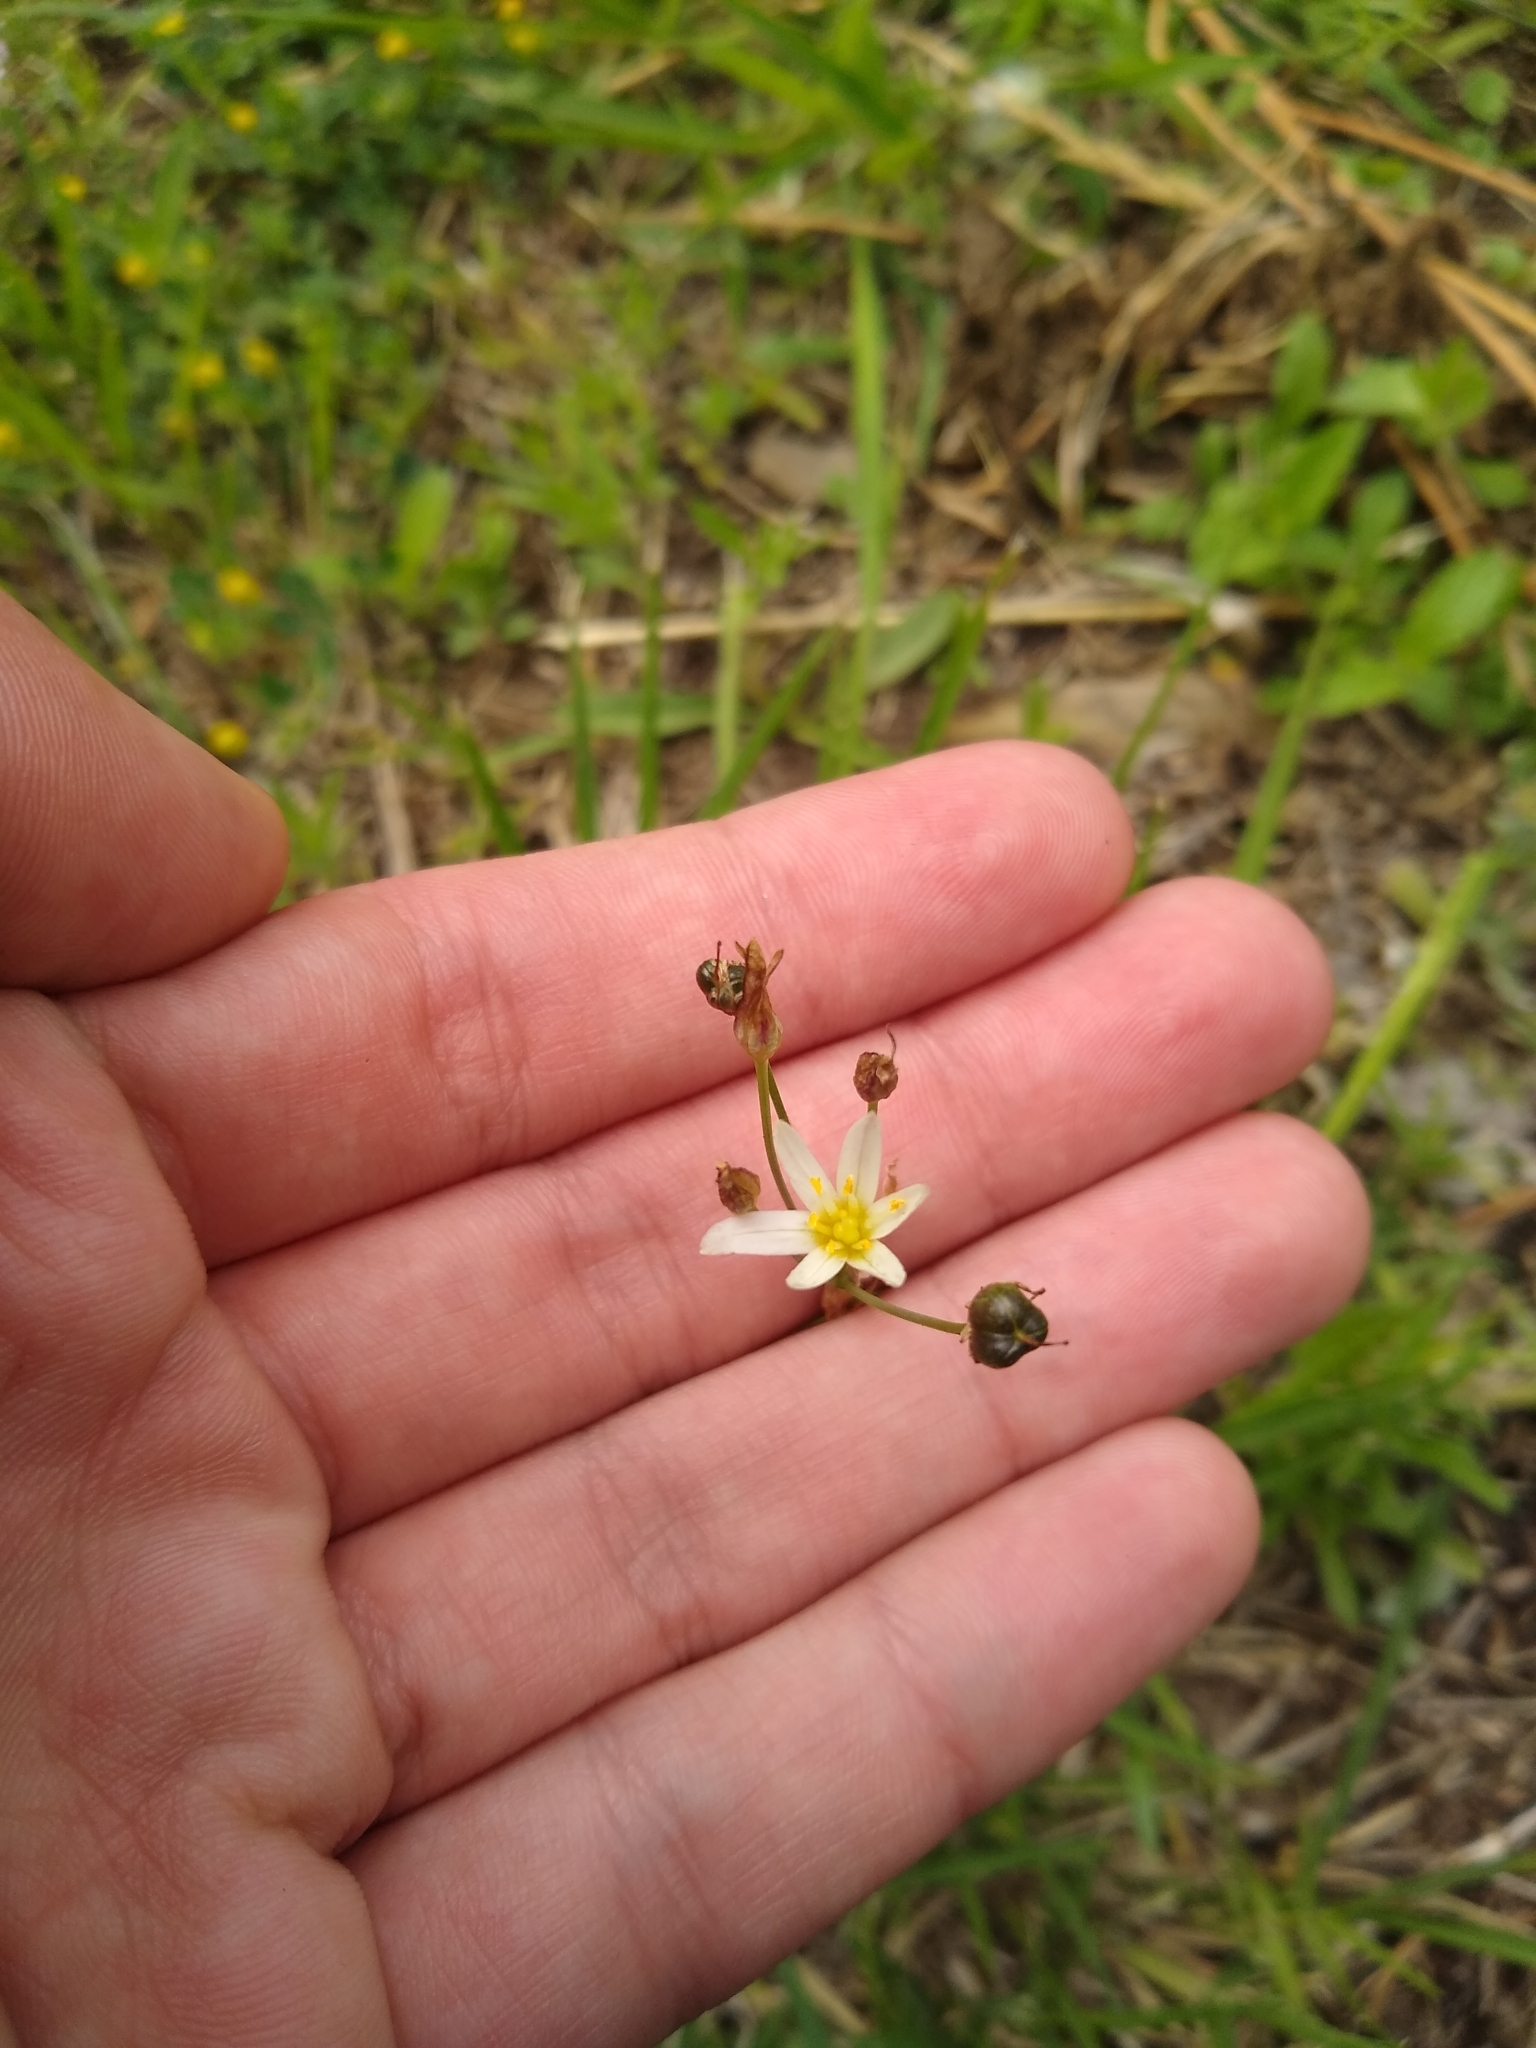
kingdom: Plantae
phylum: Tracheophyta
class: Liliopsida
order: Asparagales
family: Amaryllidaceae
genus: Nothoscordum
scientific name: Nothoscordum bonariense
